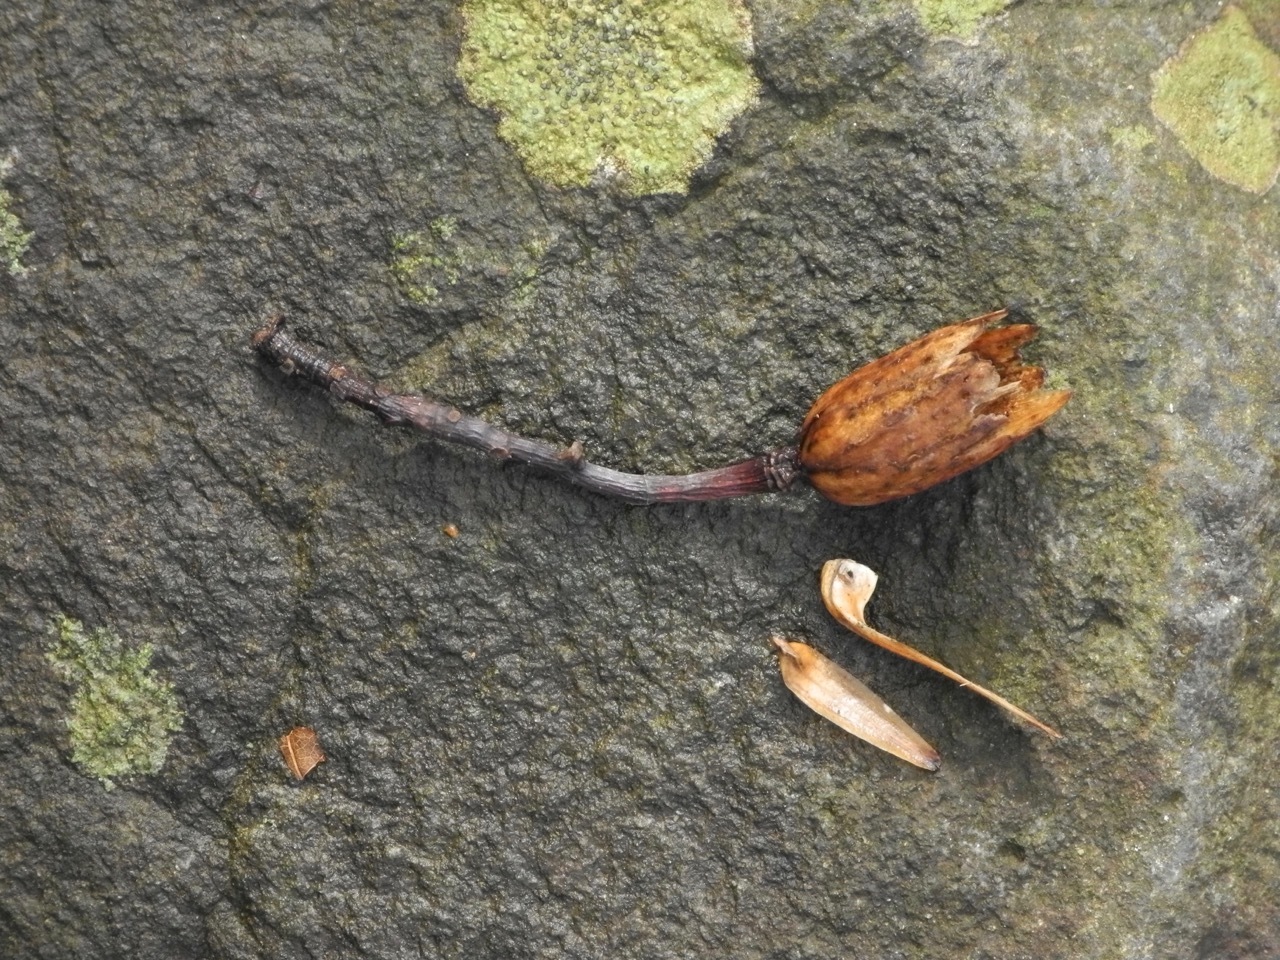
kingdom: Plantae
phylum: Tracheophyta
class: Magnoliopsida
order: Magnoliales
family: Magnoliaceae
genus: Liriodendron
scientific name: Liriodendron tulipifera
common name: Tulip tree
